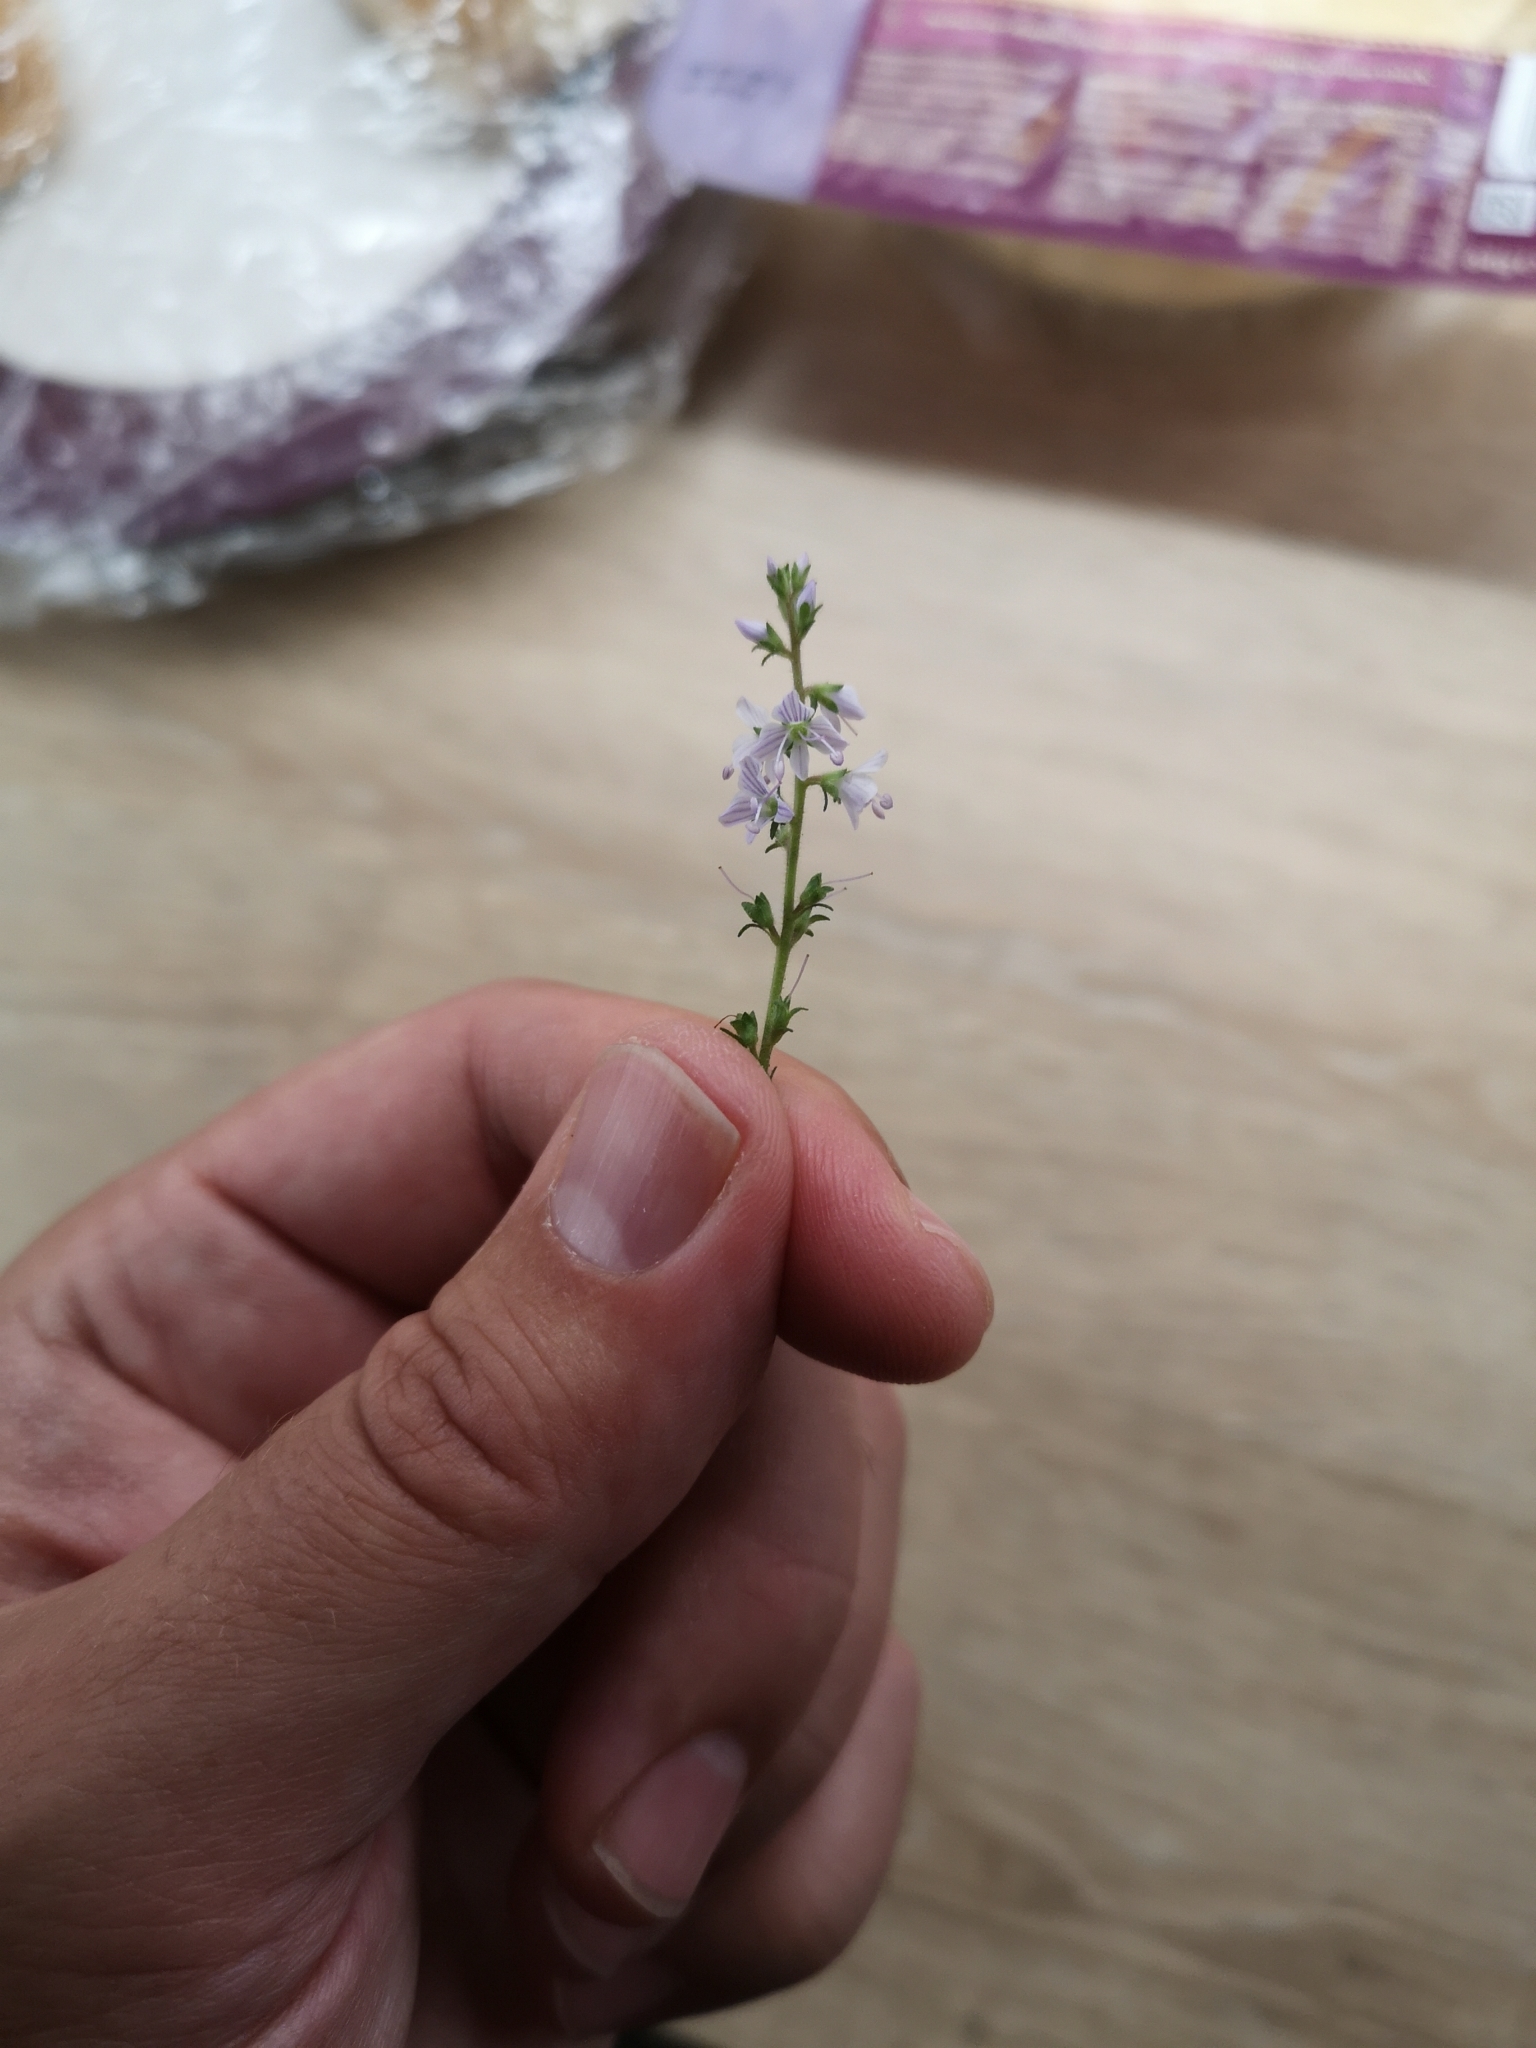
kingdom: Plantae
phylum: Tracheophyta
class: Magnoliopsida
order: Lamiales
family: Plantaginaceae
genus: Veronica
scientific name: Veronica officinalis
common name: Common speedwell
